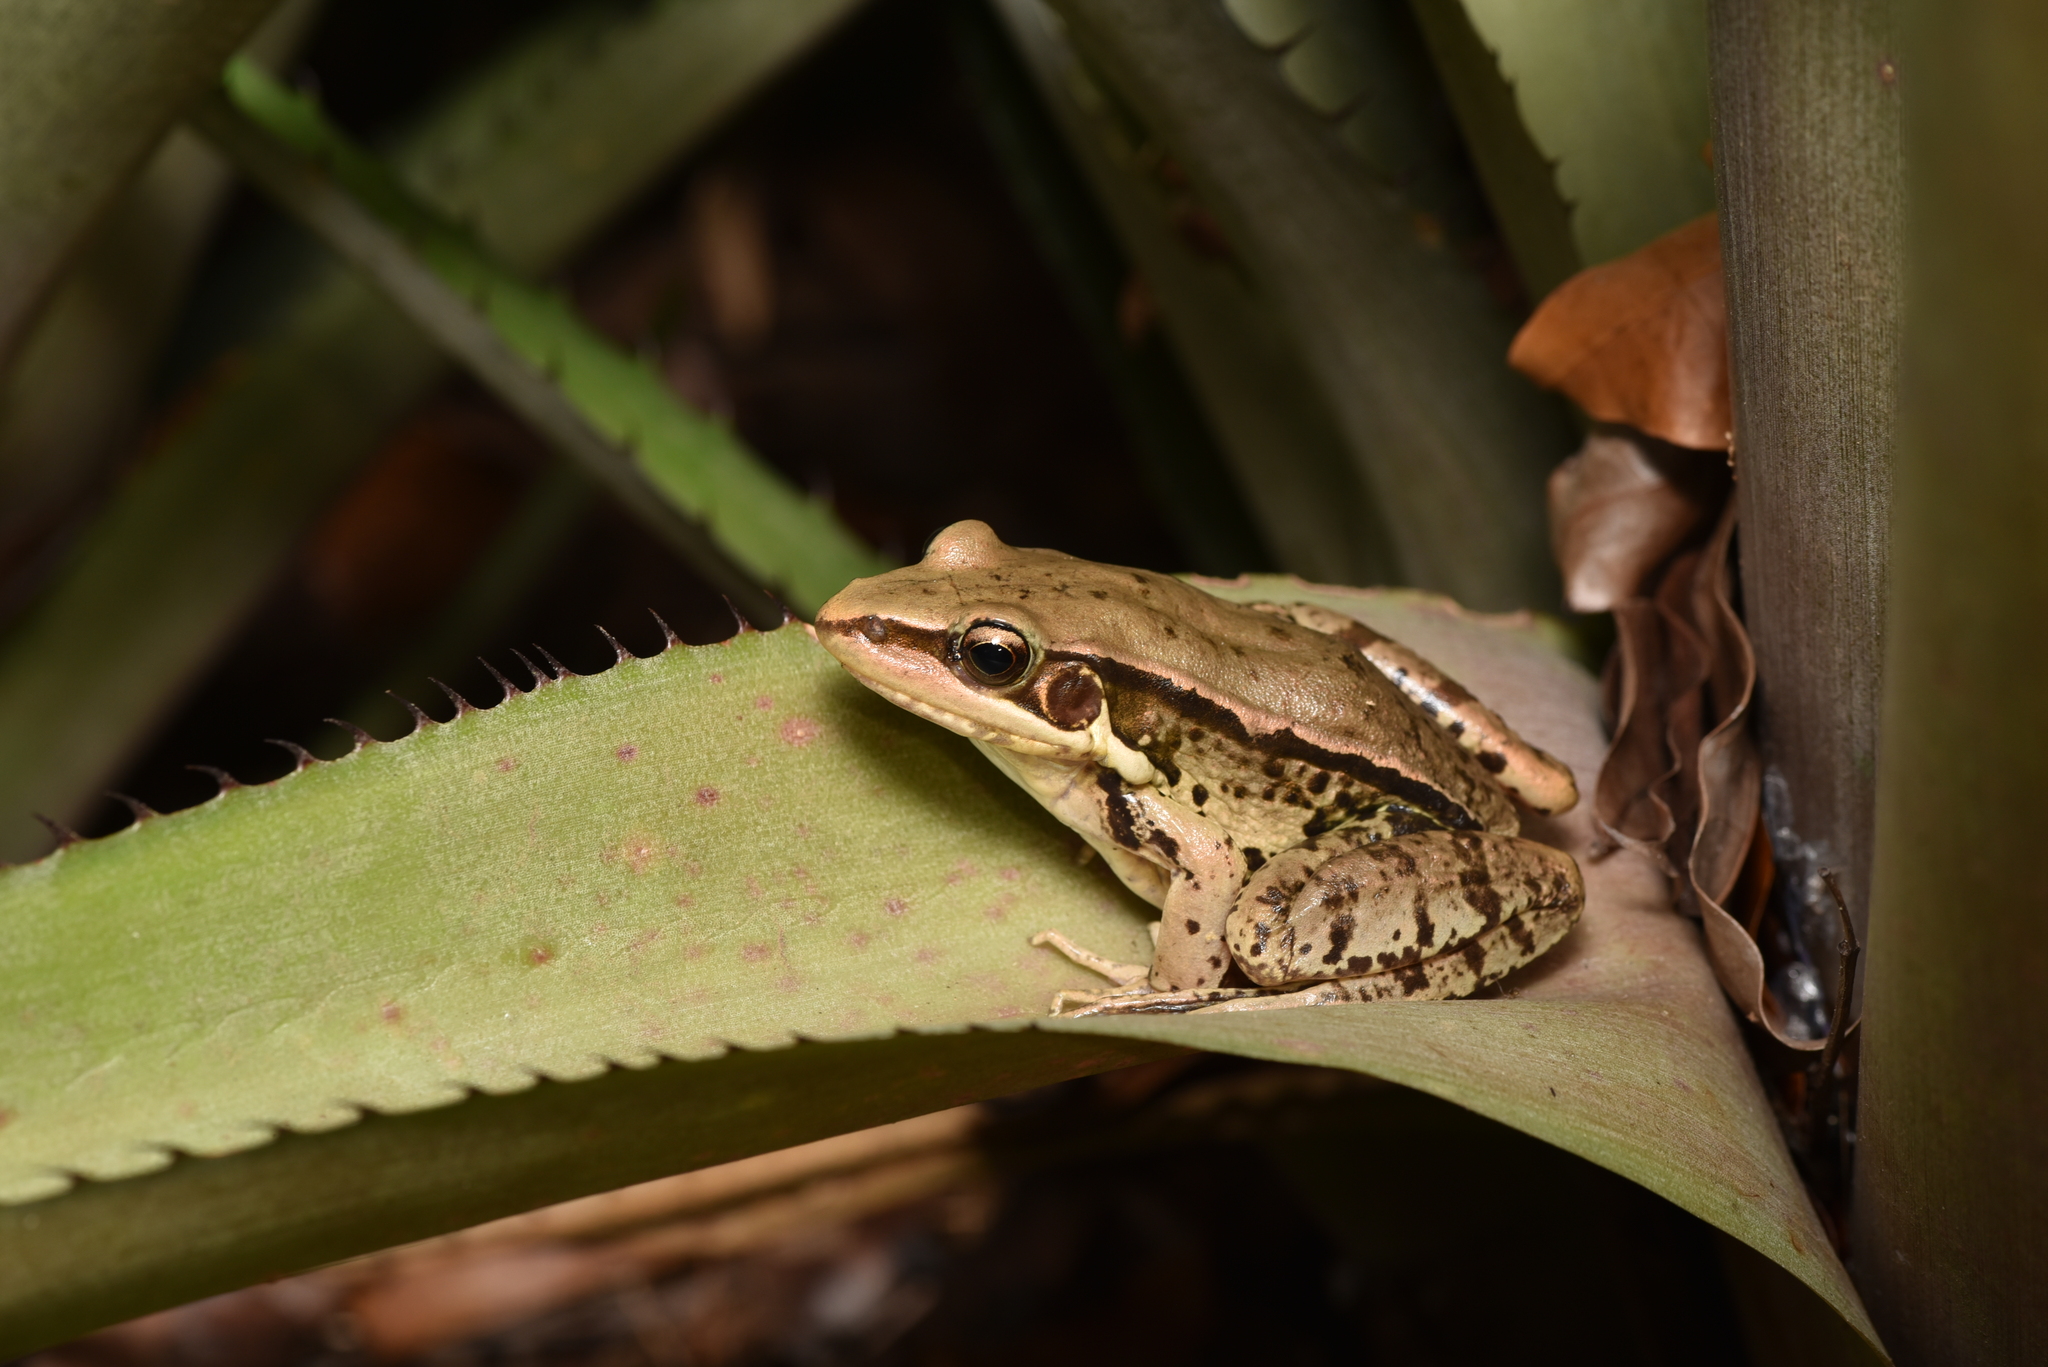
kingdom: Animalia
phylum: Chordata
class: Amphibia
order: Anura
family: Ranidae
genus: Sylvirana
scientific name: Sylvirana guentheri
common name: Guenther's amoy frog
